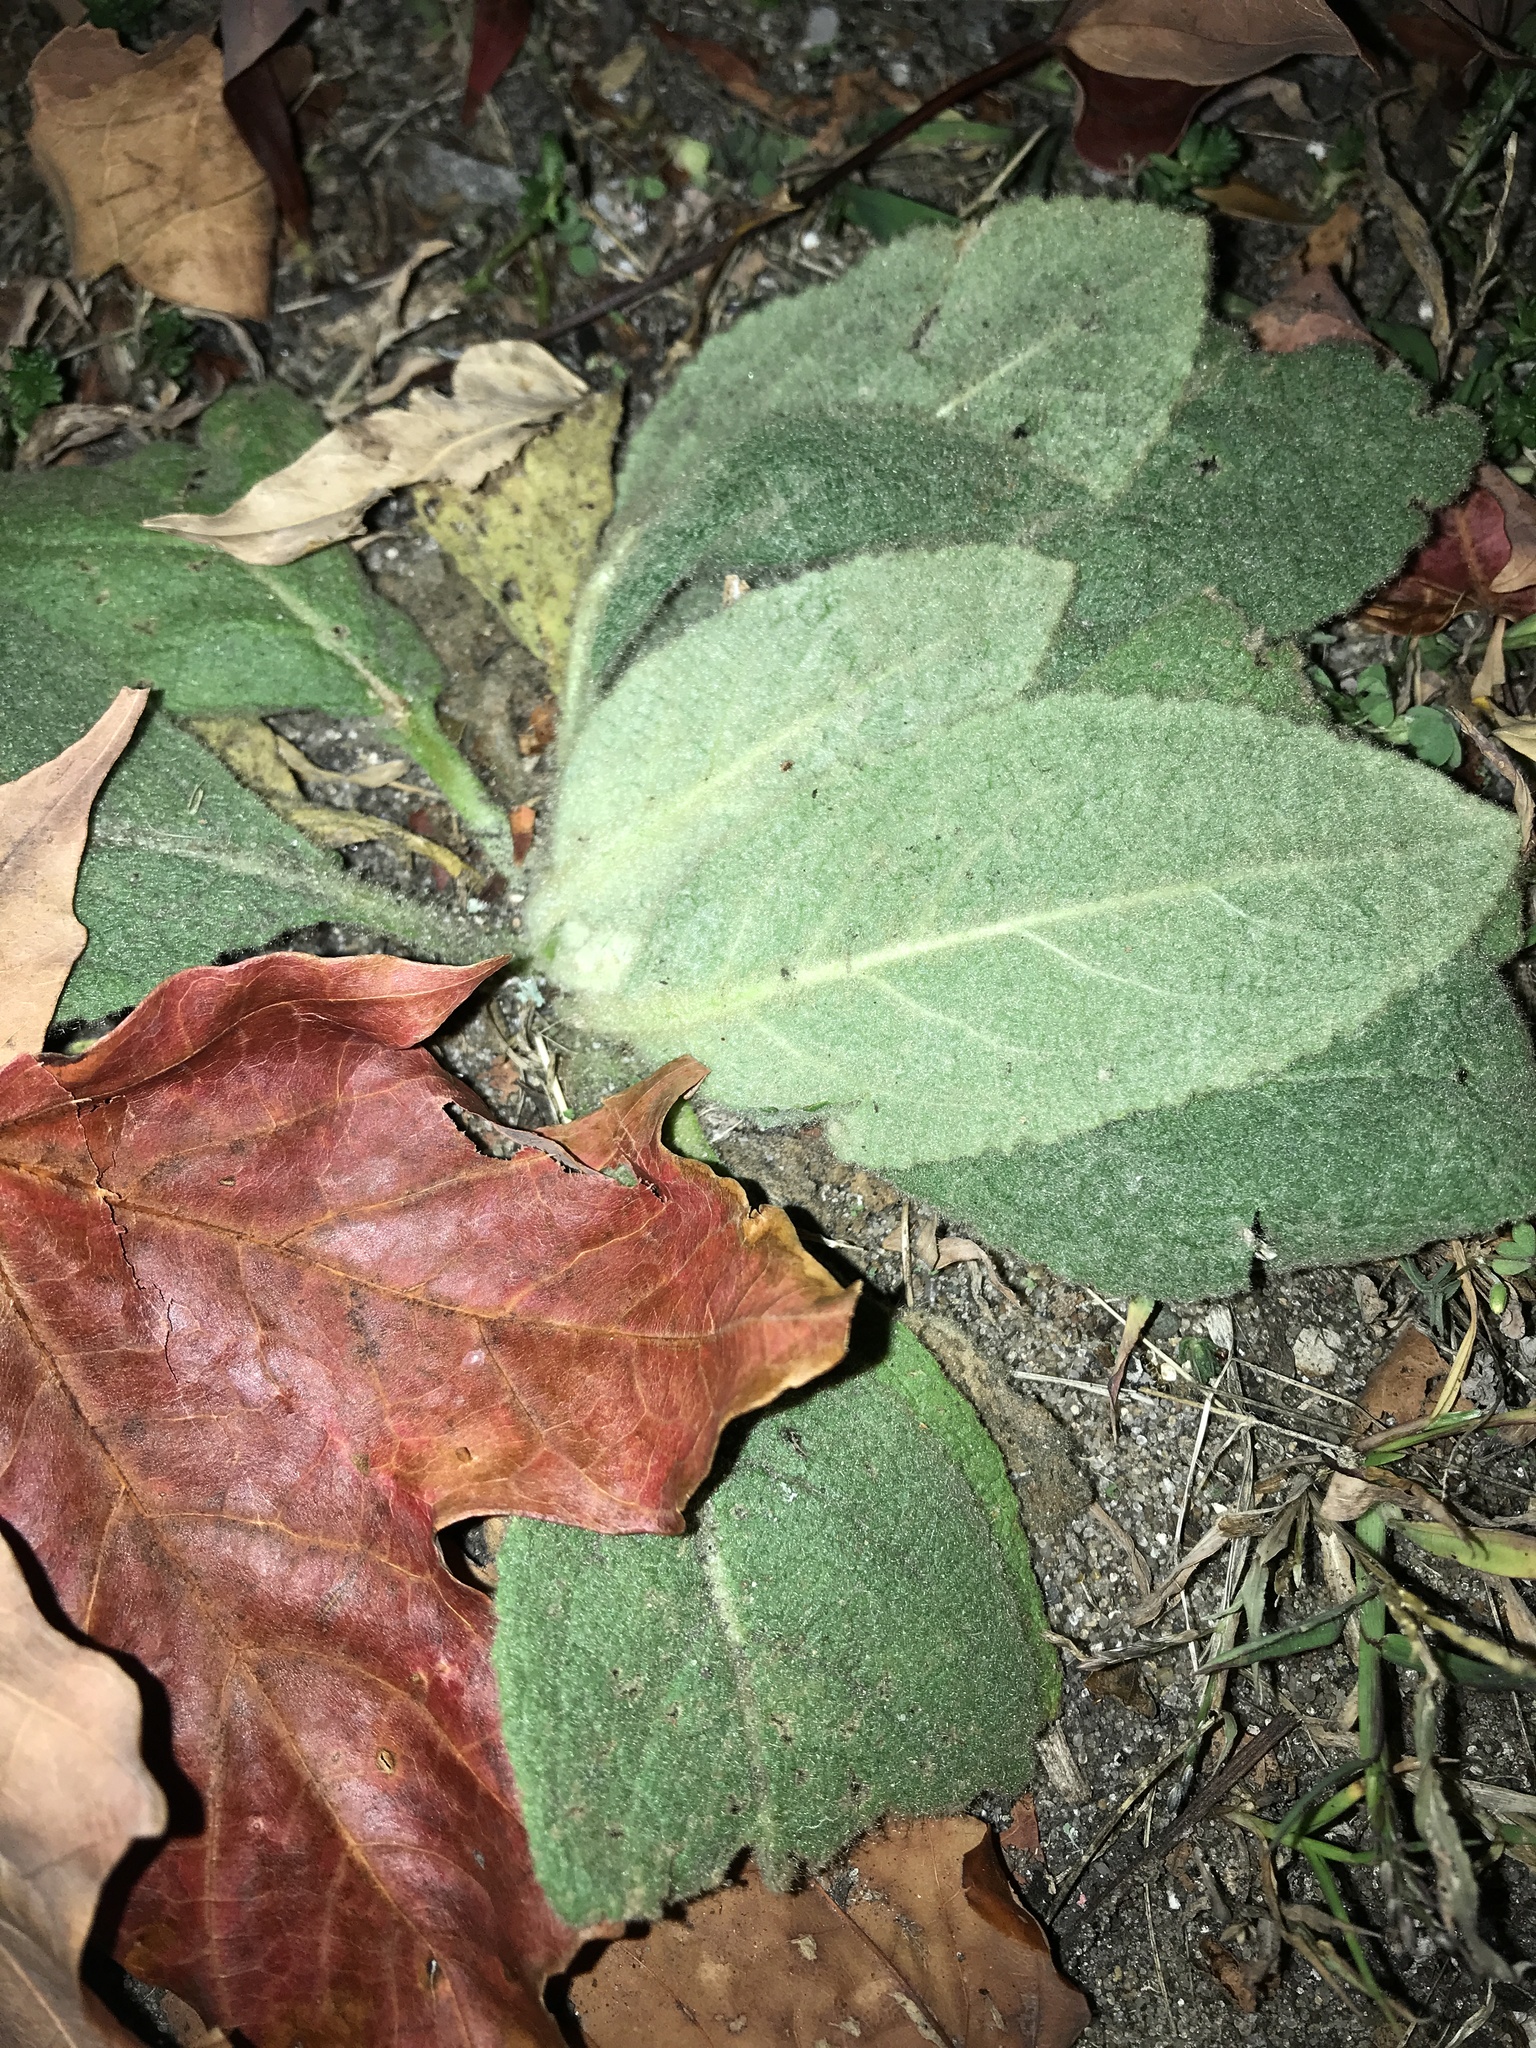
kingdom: Plantae
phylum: Tracheophyta
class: Magnoliopsida
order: Lamiales
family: Scrophulariaceae
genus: Verbascum
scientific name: Verbascum thapsus
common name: Common mullein
